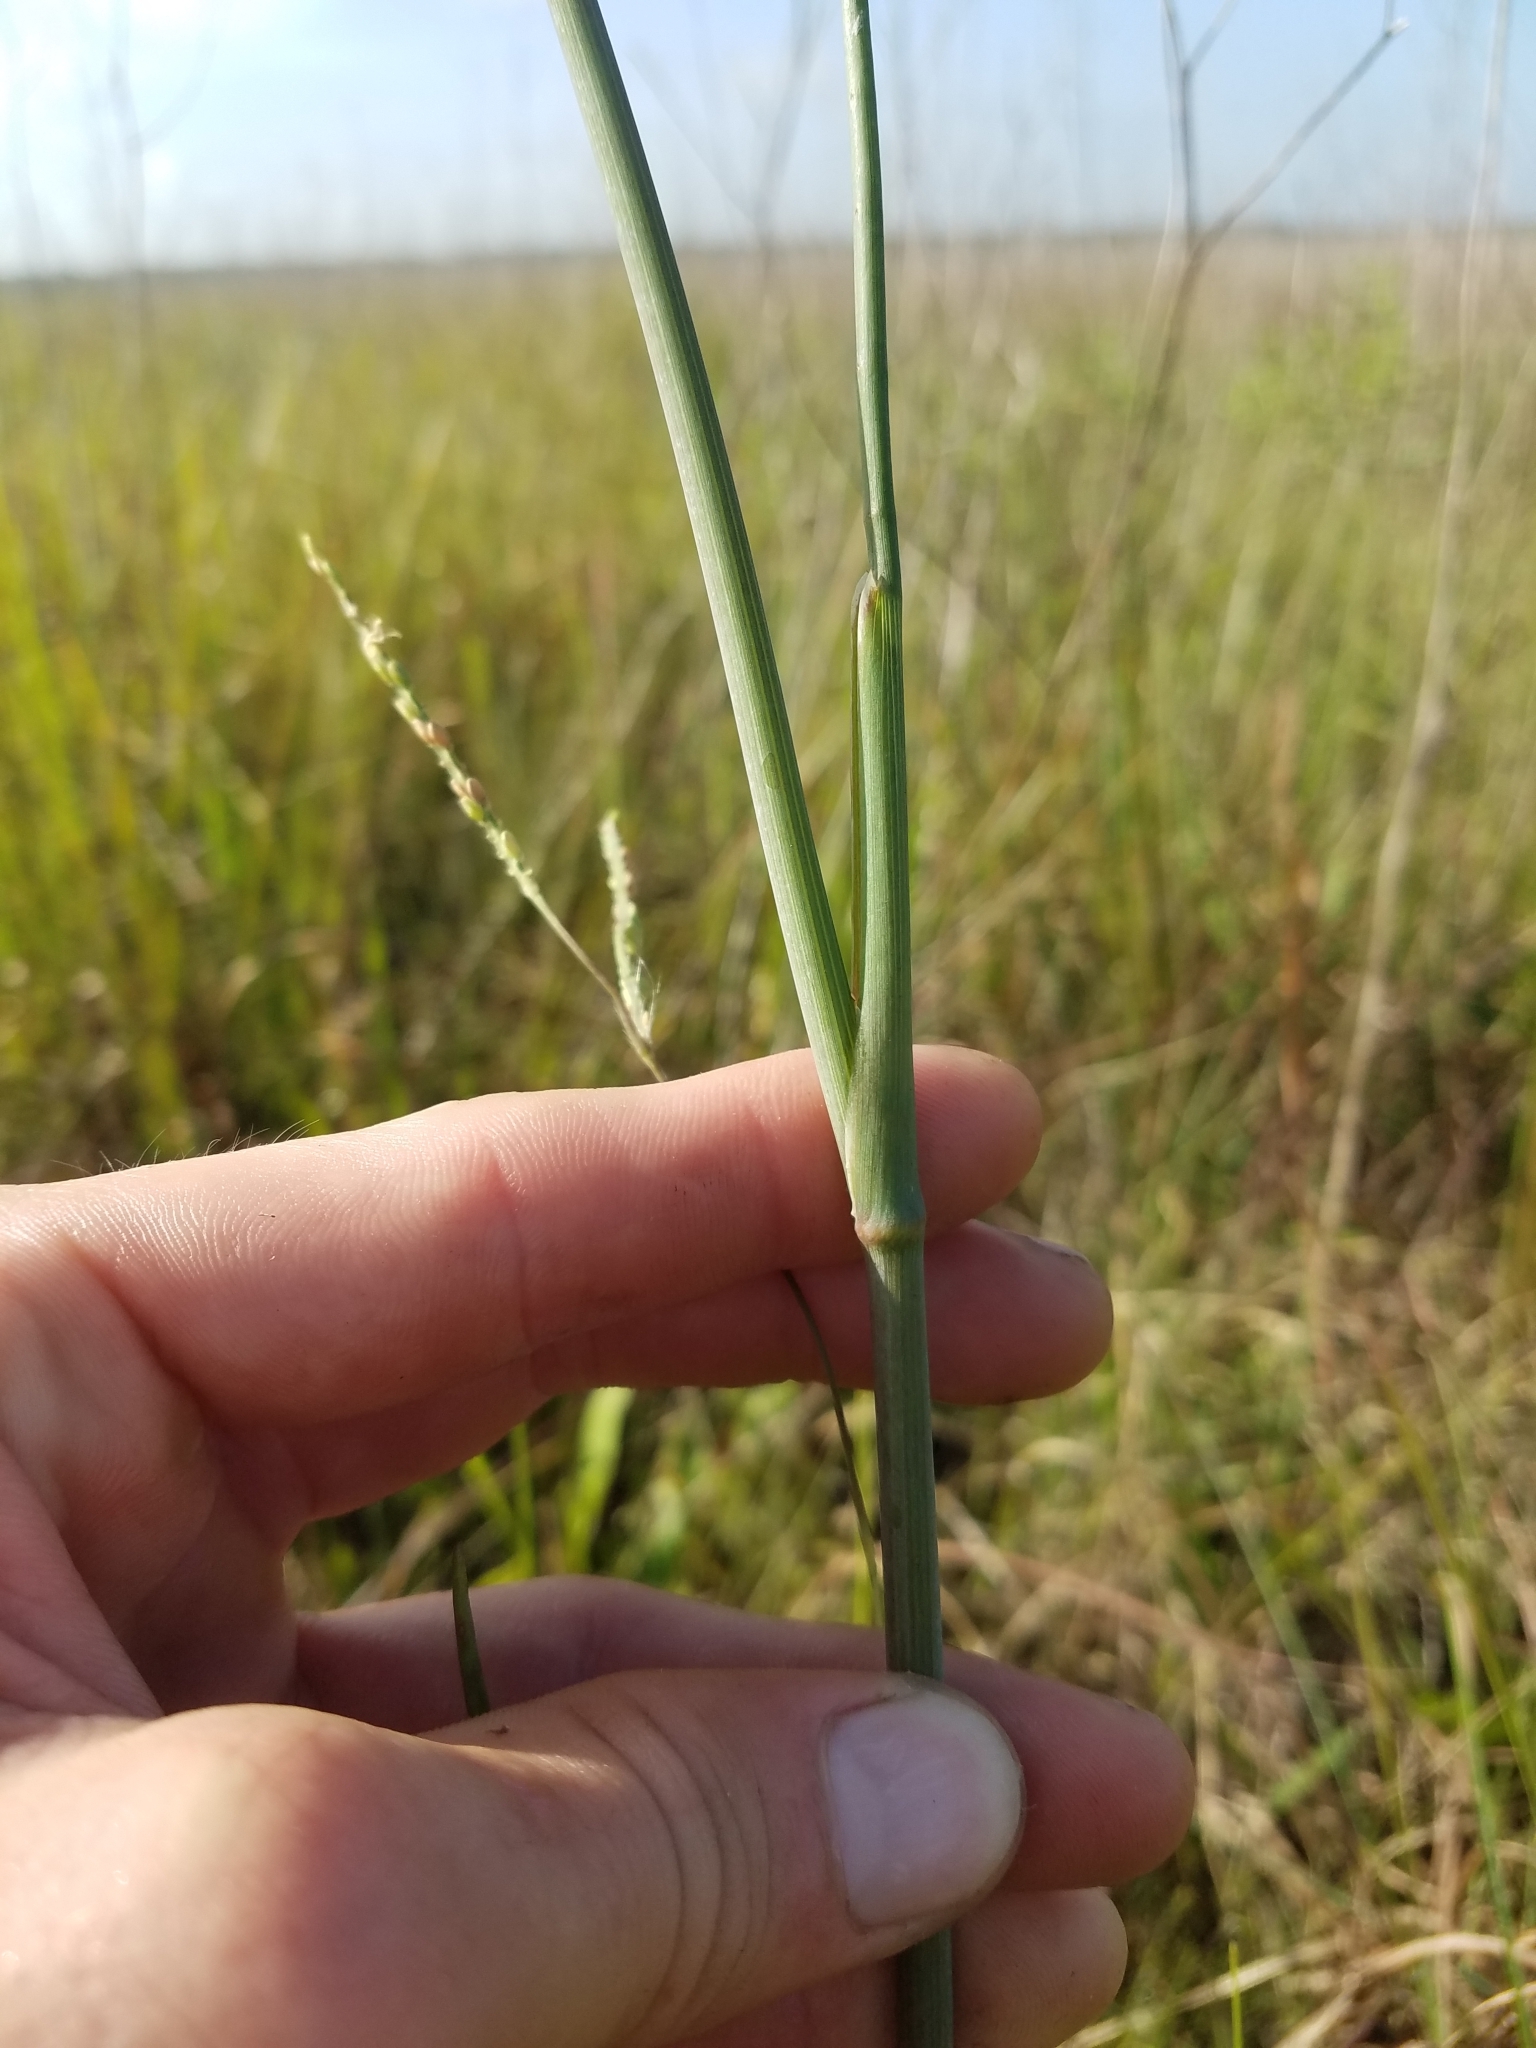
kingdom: Plantae
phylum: Tracheophyta
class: Magnoliopsida
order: Apiales
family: Apiaceae
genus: Tiedemannia
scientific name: Tiedemannia filiformis
